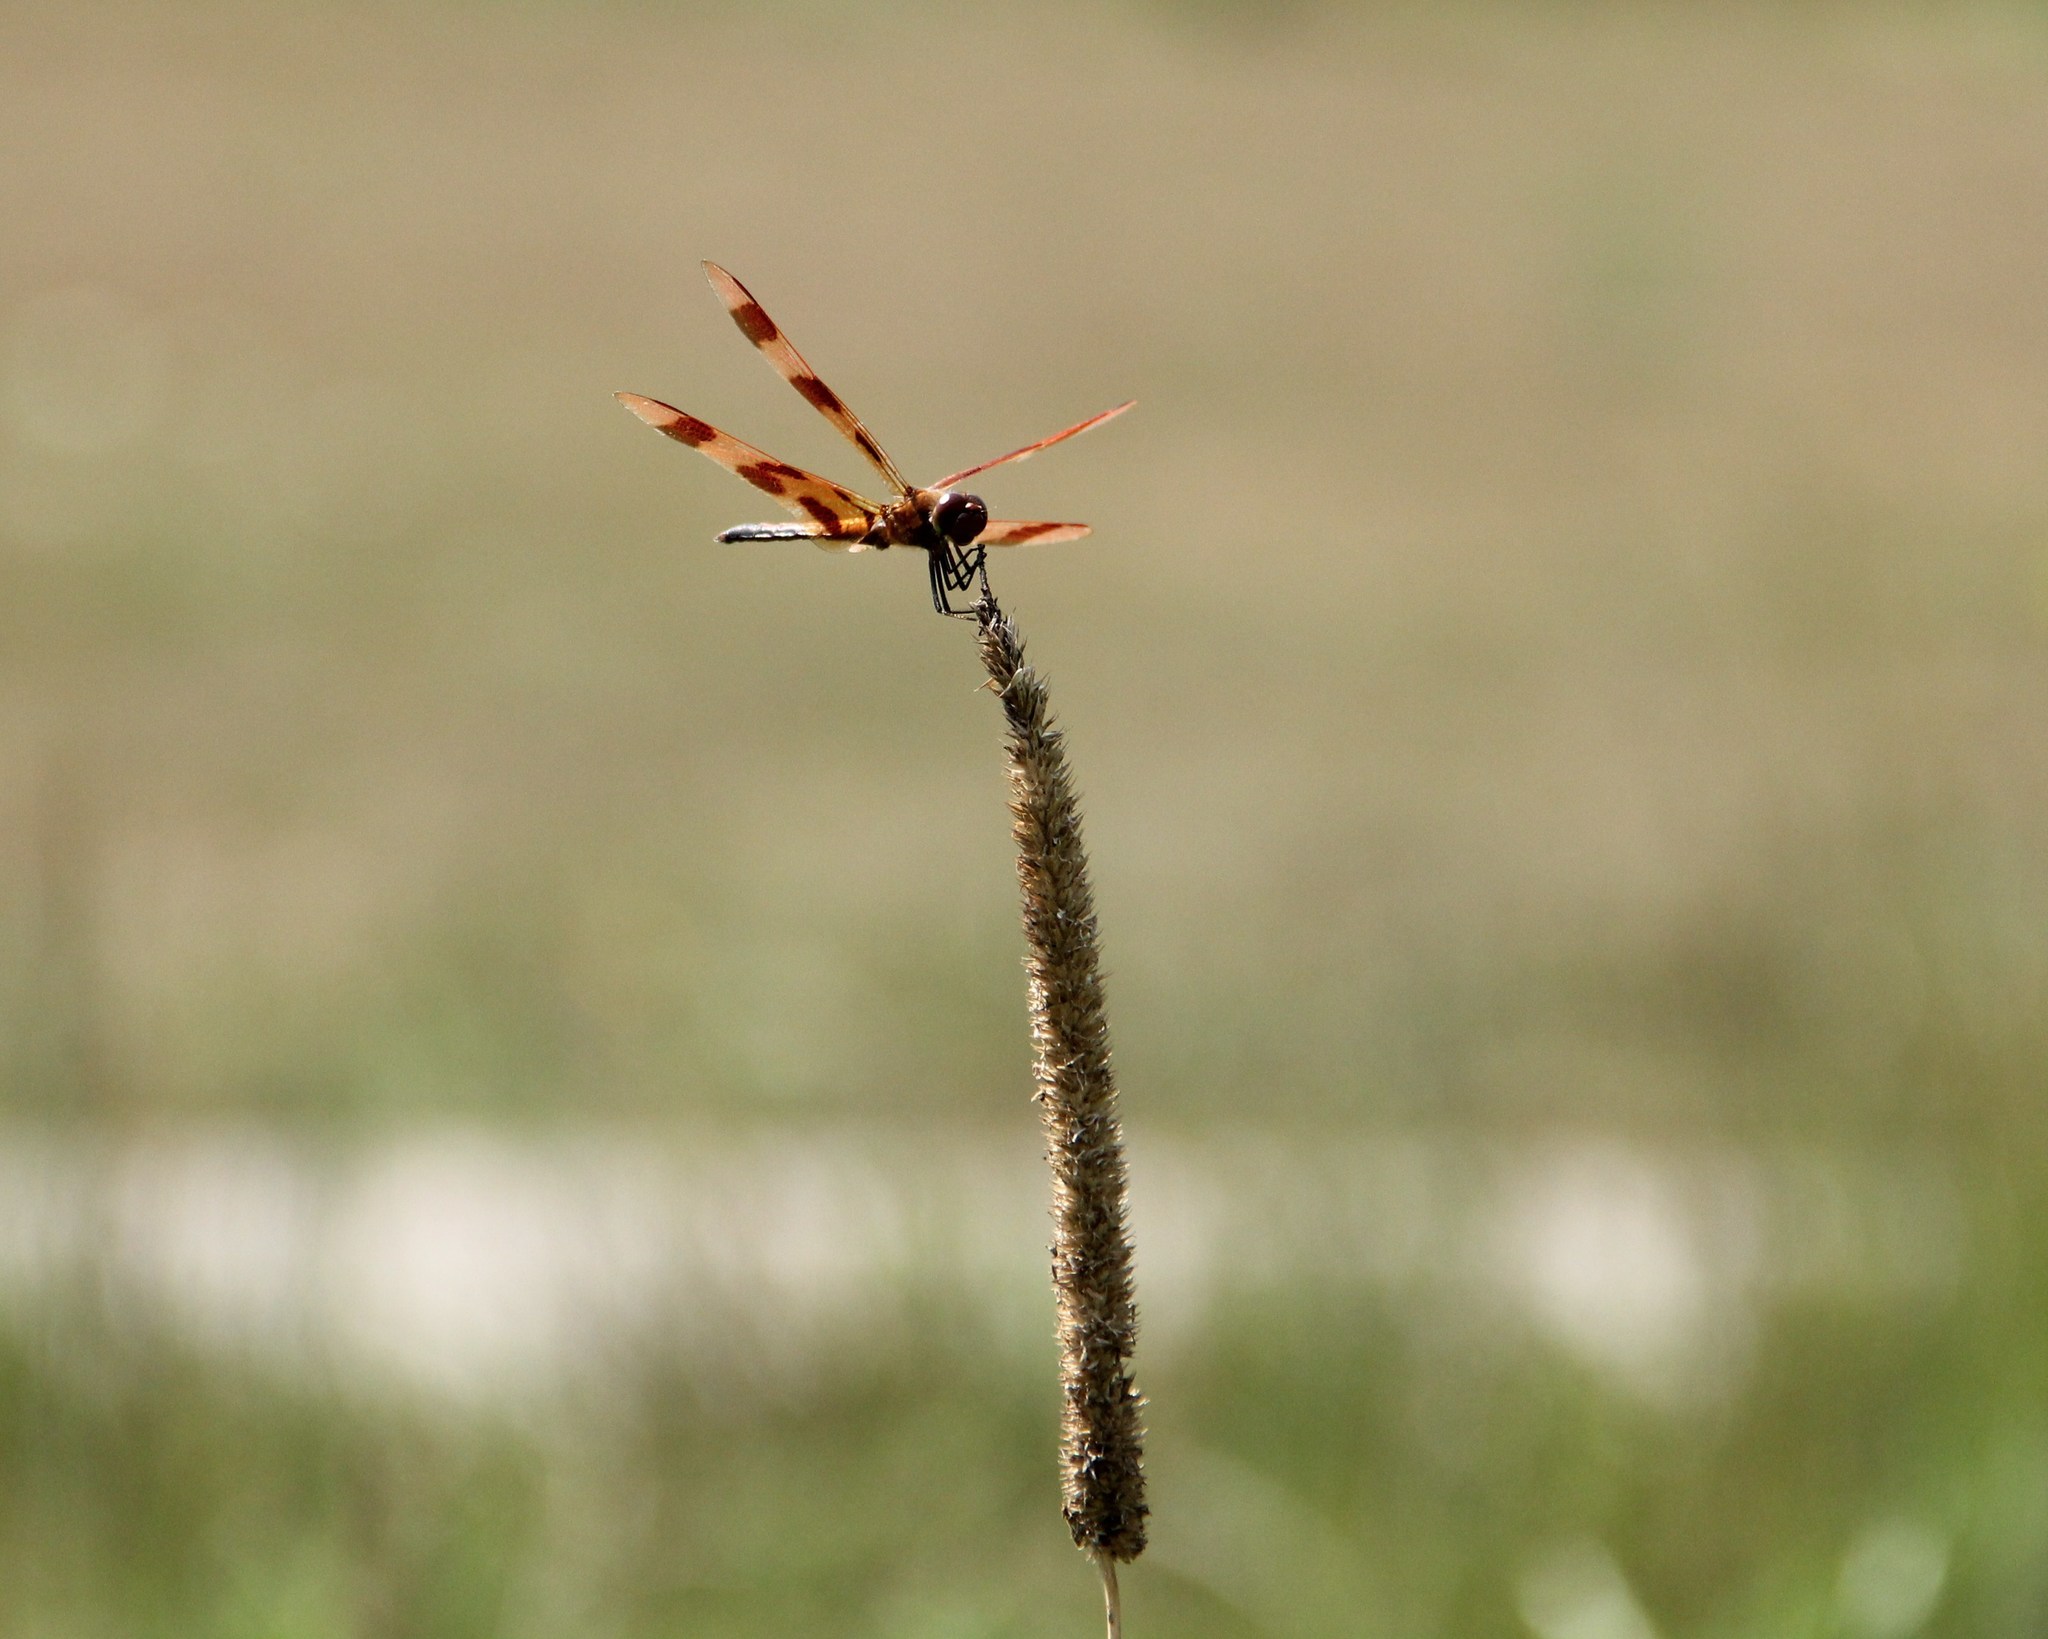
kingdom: Animalia
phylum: Arthropoda
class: Insecta
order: Odonata
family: Libellulidae
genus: Celithemis
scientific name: Celithemis eponina
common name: Halloween pennant
